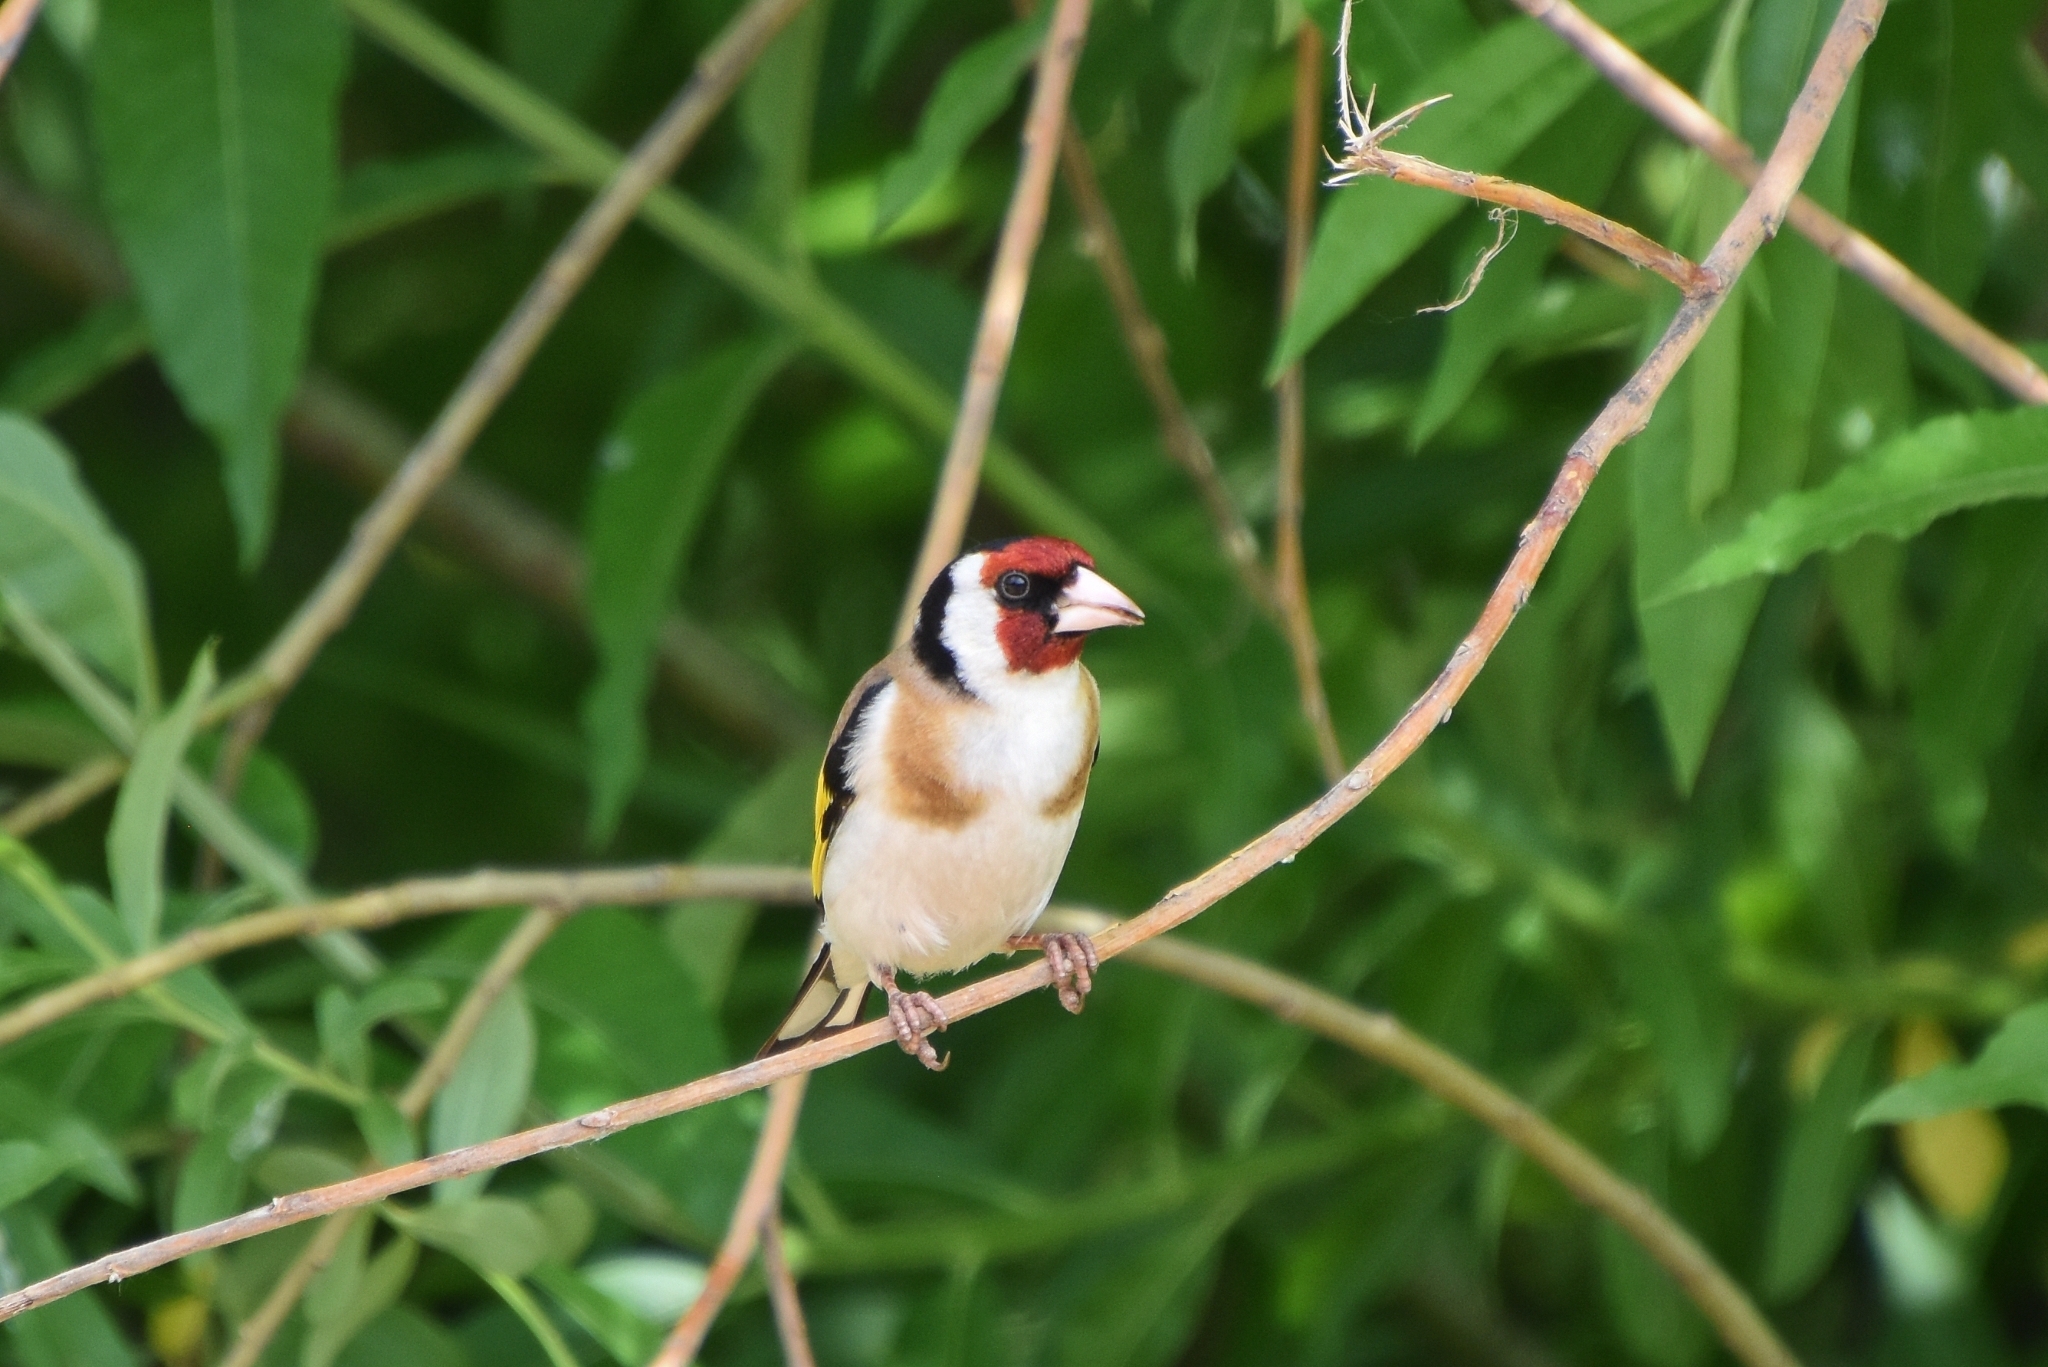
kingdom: Animalia
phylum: Chordata
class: Aves
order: Passeriformes
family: Fringillidae
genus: Carduelis
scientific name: Carduelis carduelis
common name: European goldfinch
